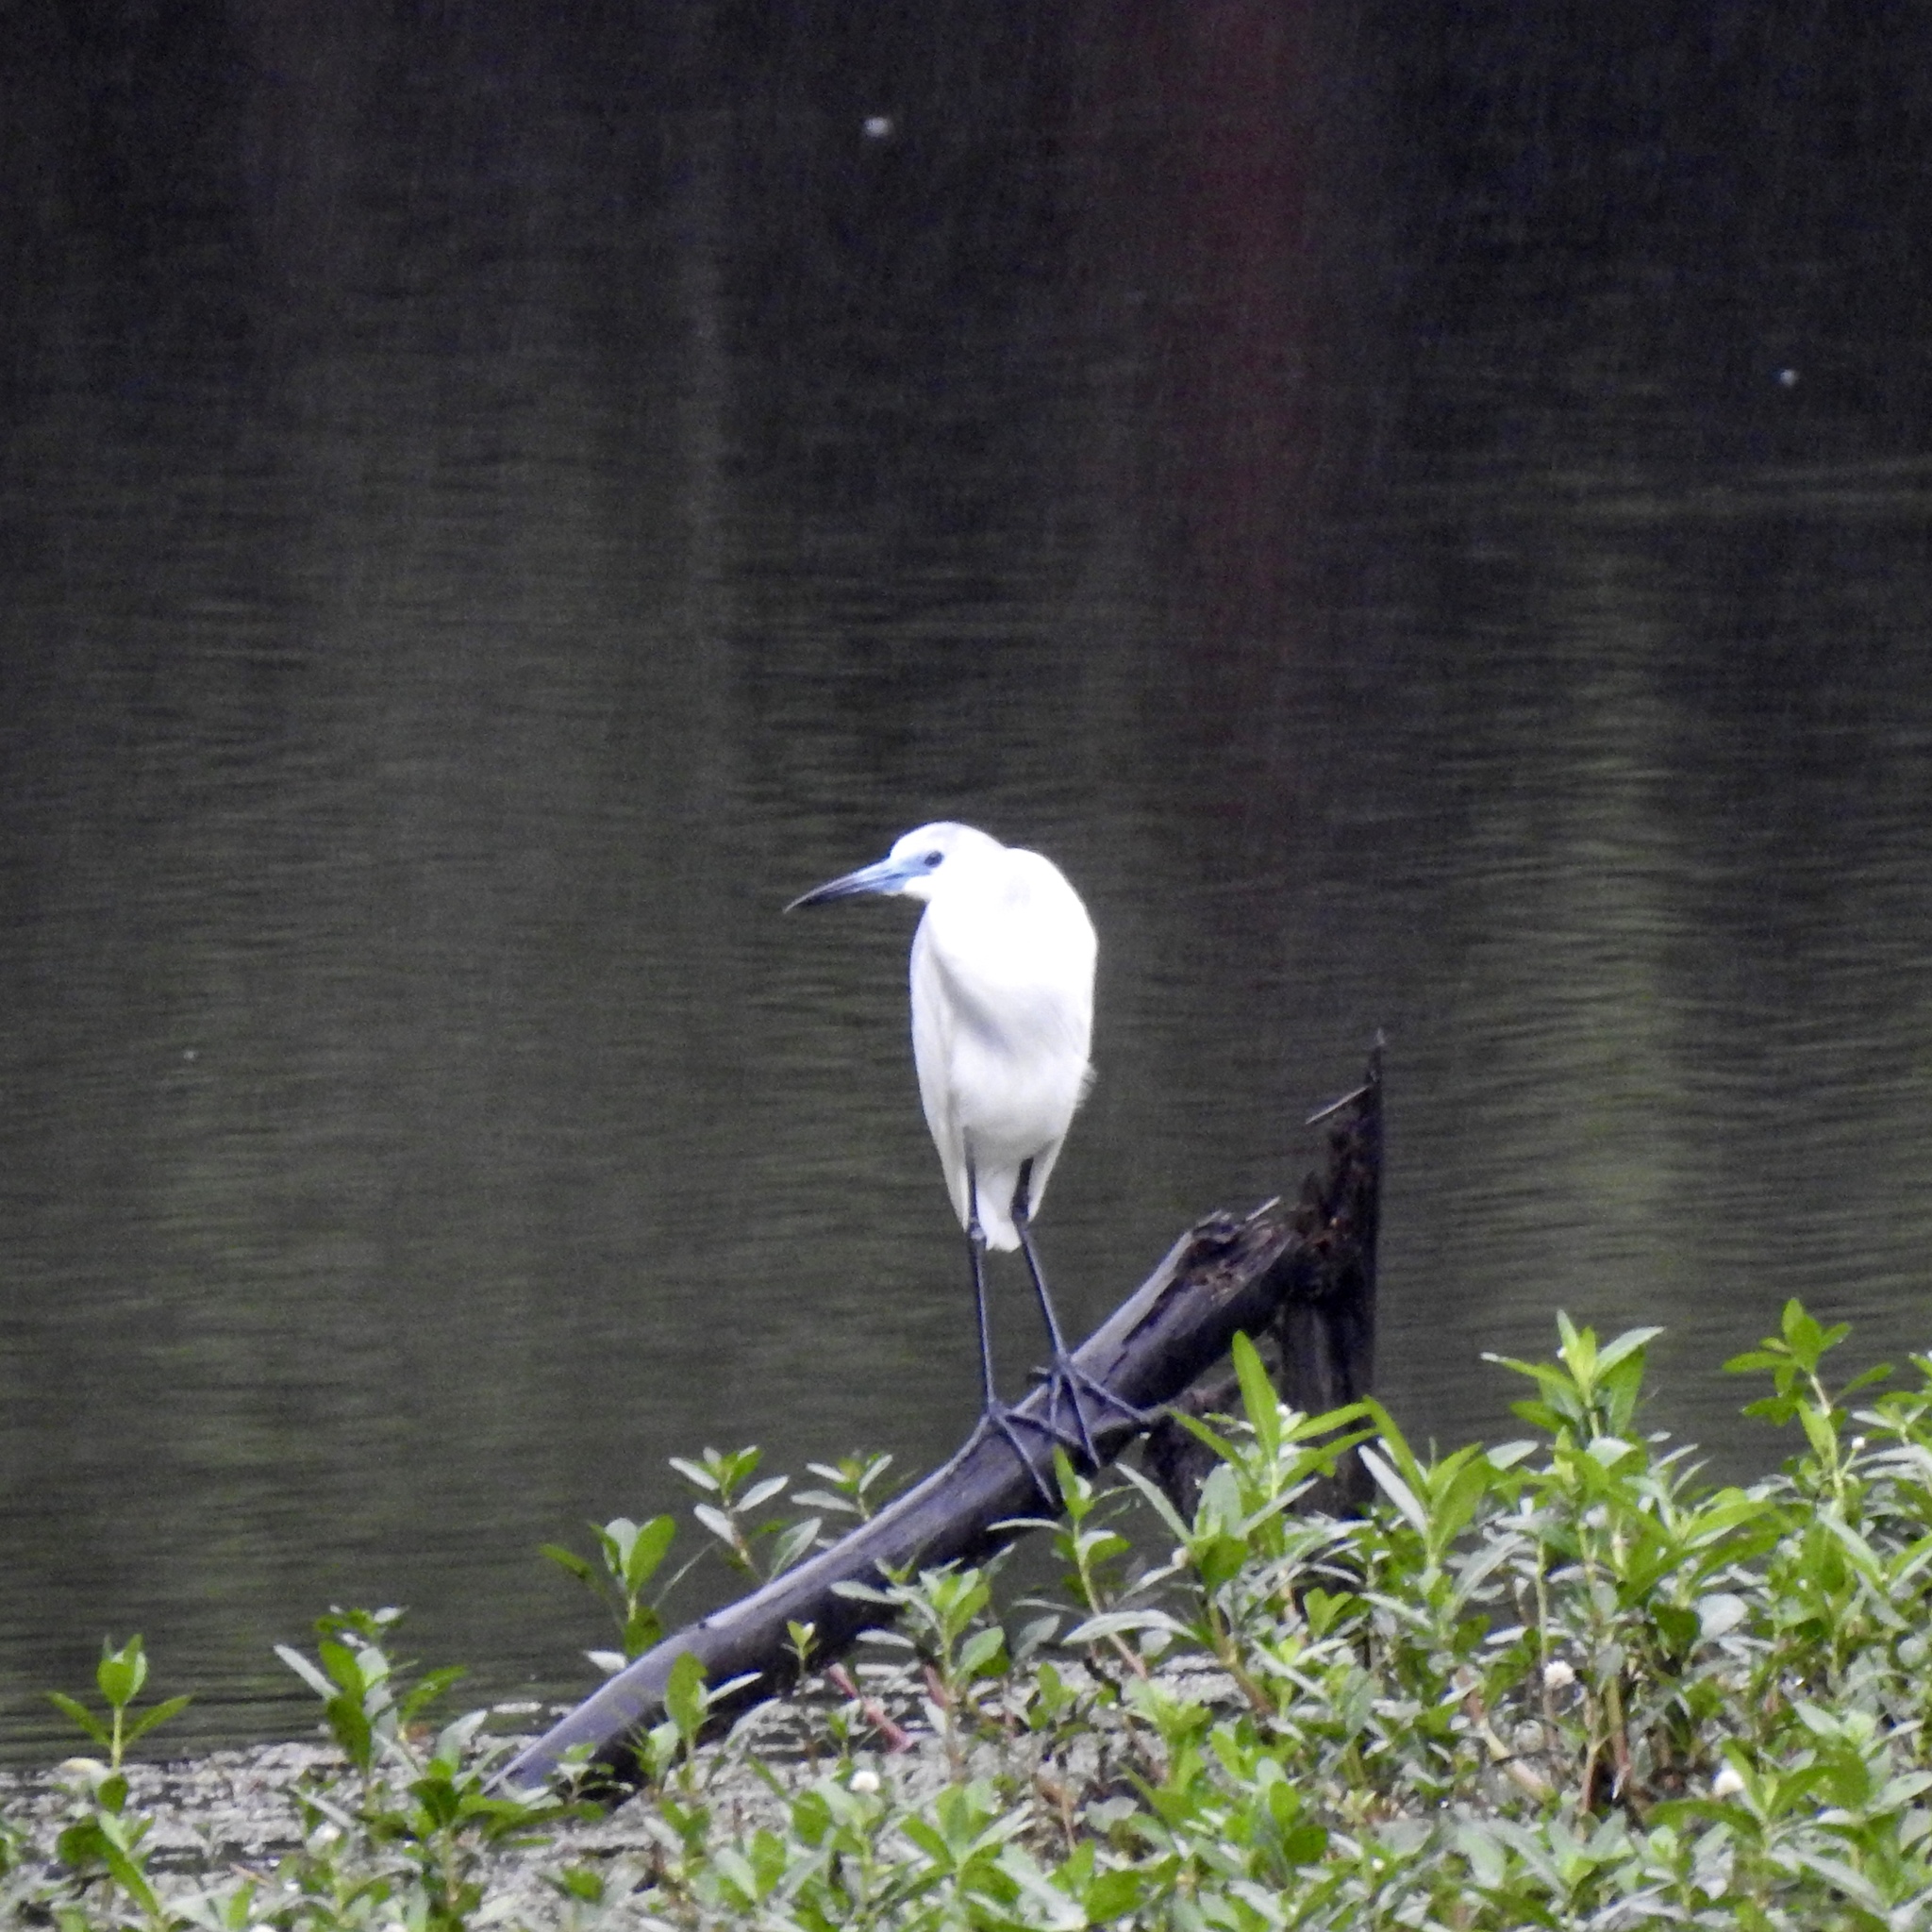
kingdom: Animalia
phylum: Chordata
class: Aves
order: Pelecaniformes
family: Ardeidae
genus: Egretta
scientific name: Egretta caerulea
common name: Little blue heron
